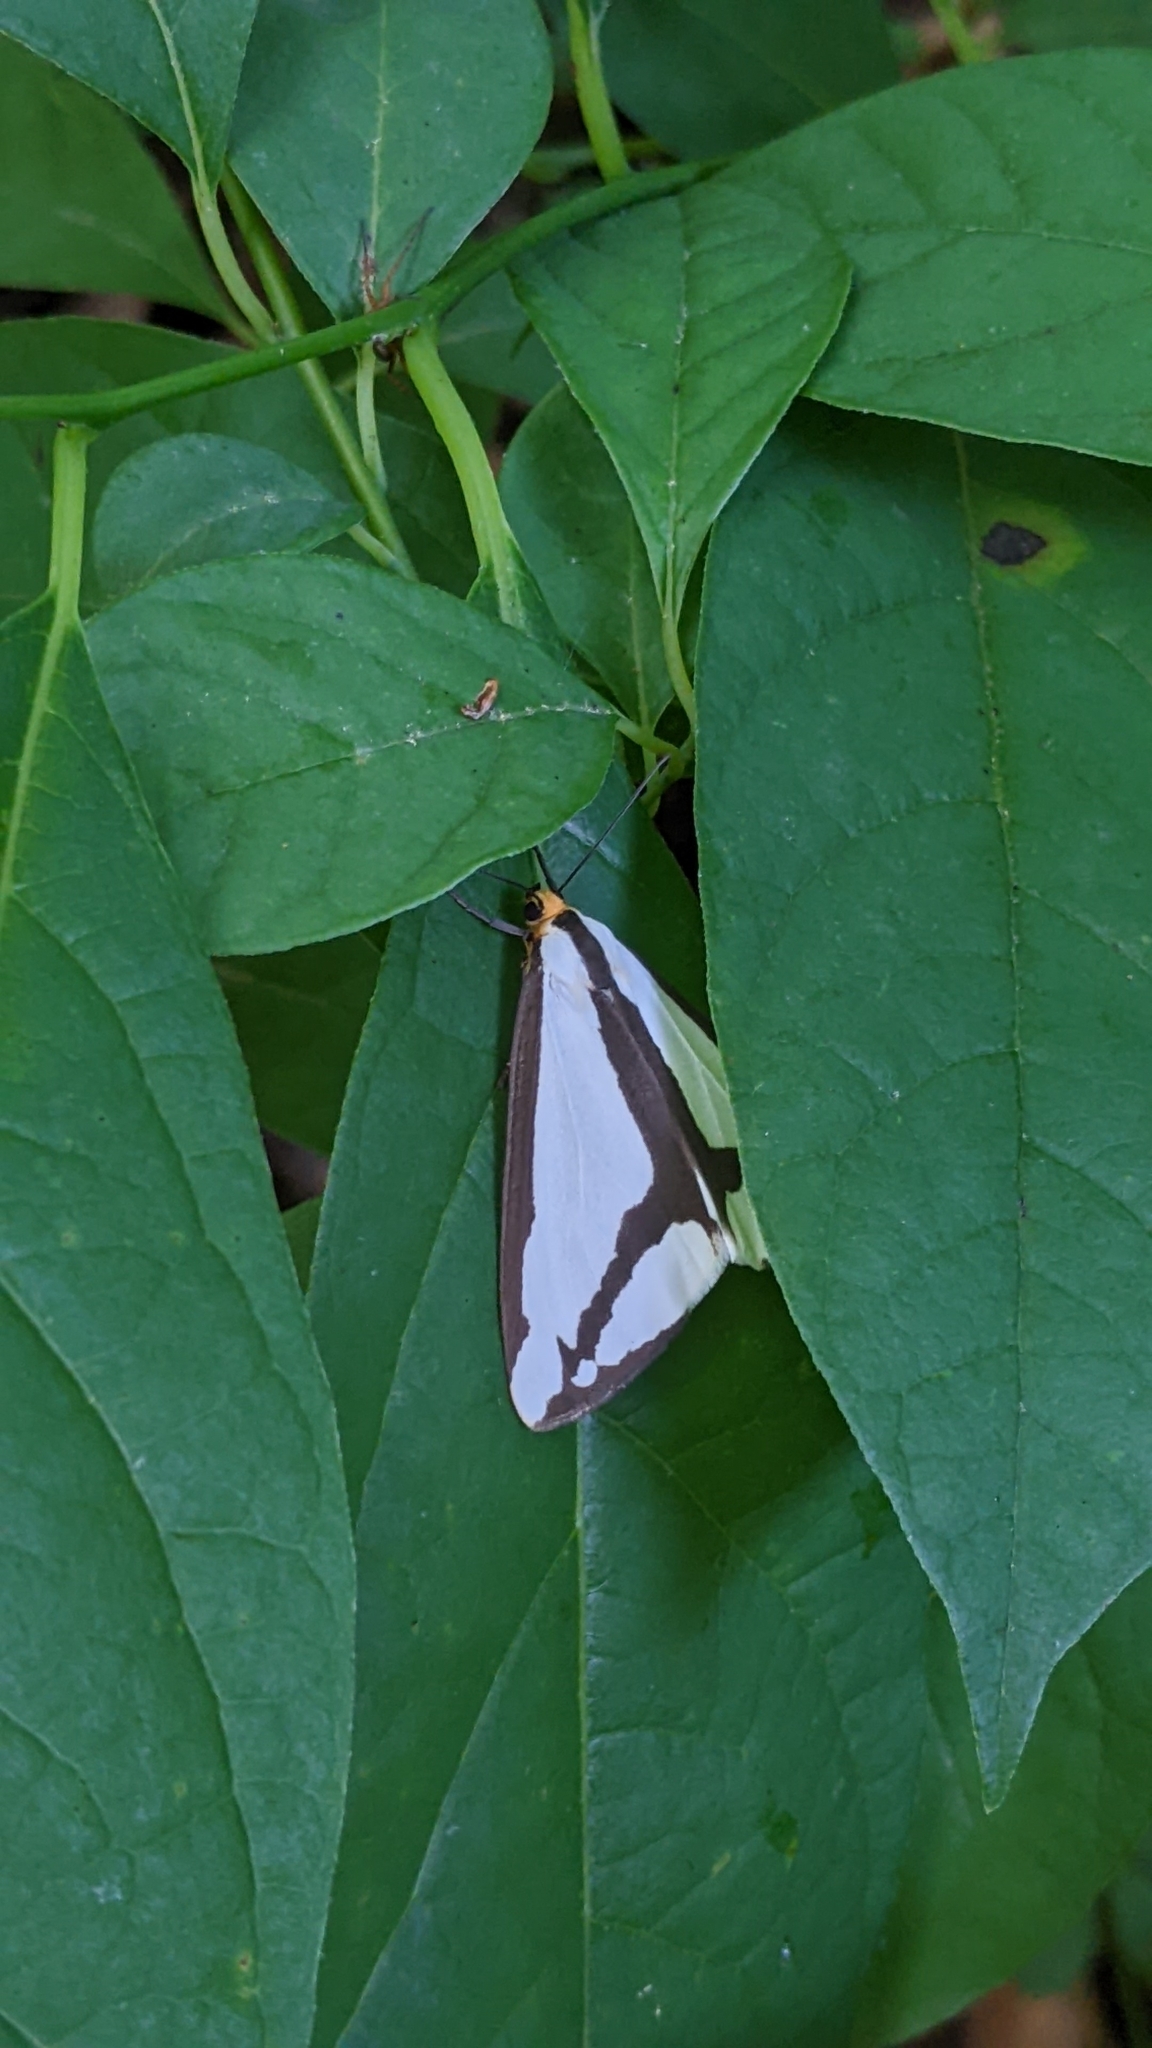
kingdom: Animalia
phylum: Arthropoda
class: Insecta
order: Lepidoptera
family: Erebidae
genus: Haploa
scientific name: Haploa lecontei
